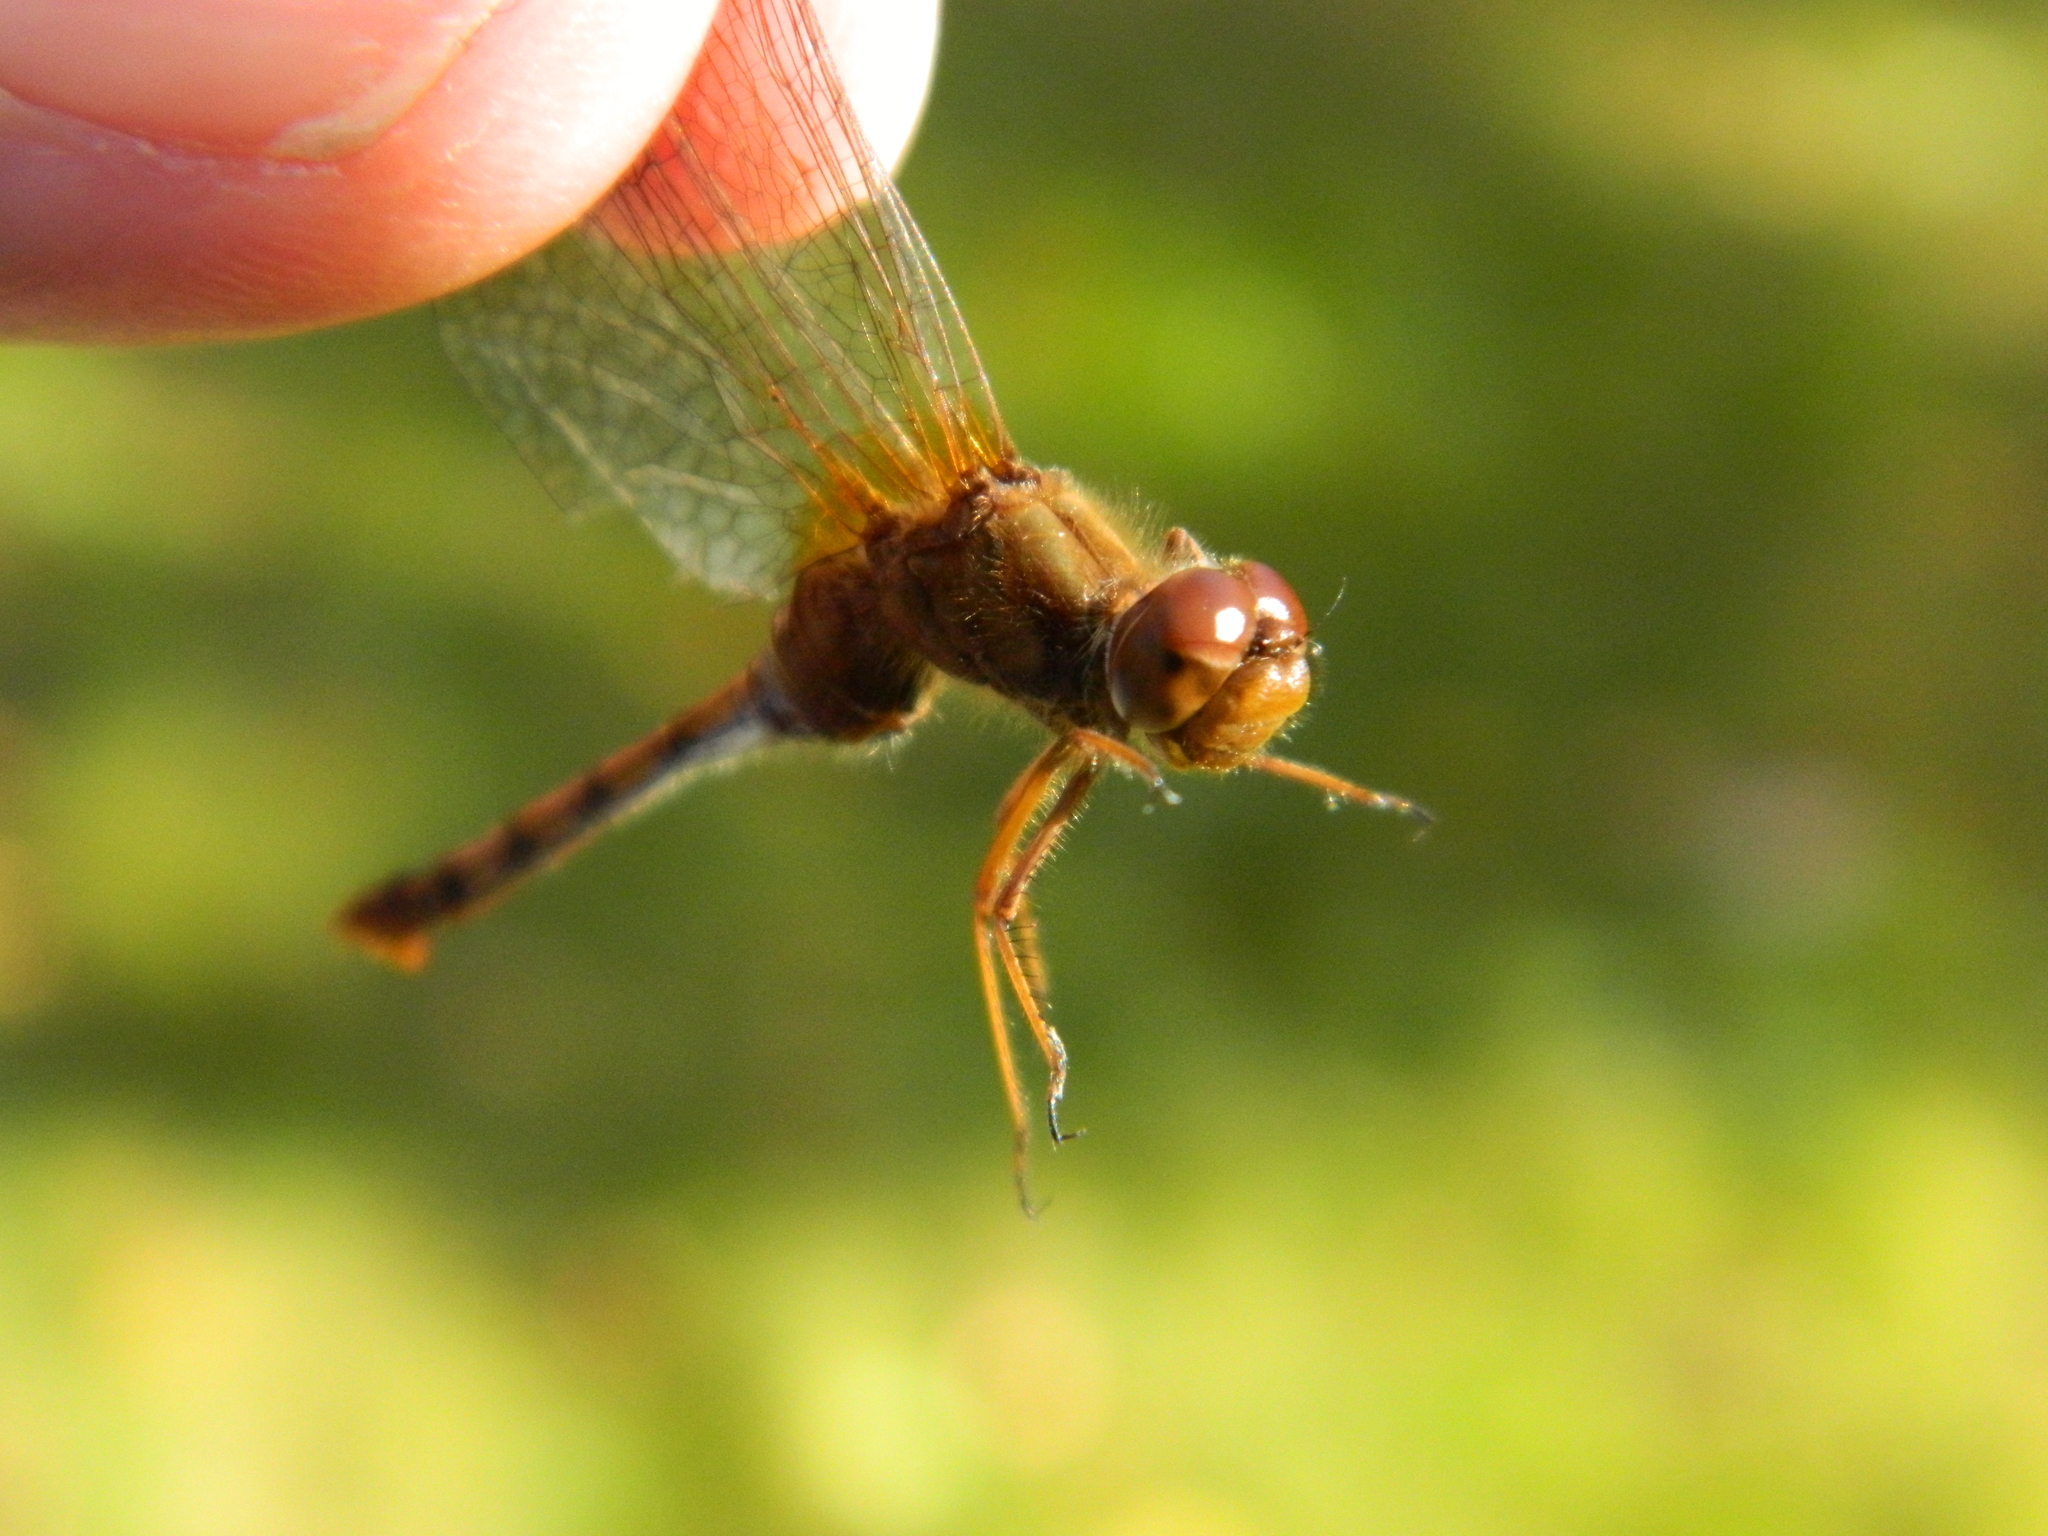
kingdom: Animalia
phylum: Arthropoda
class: Insecta
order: Odonata
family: Libellulidae
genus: Sympetrum
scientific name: Sympetrum vicinum
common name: Autumn meadowhawk
